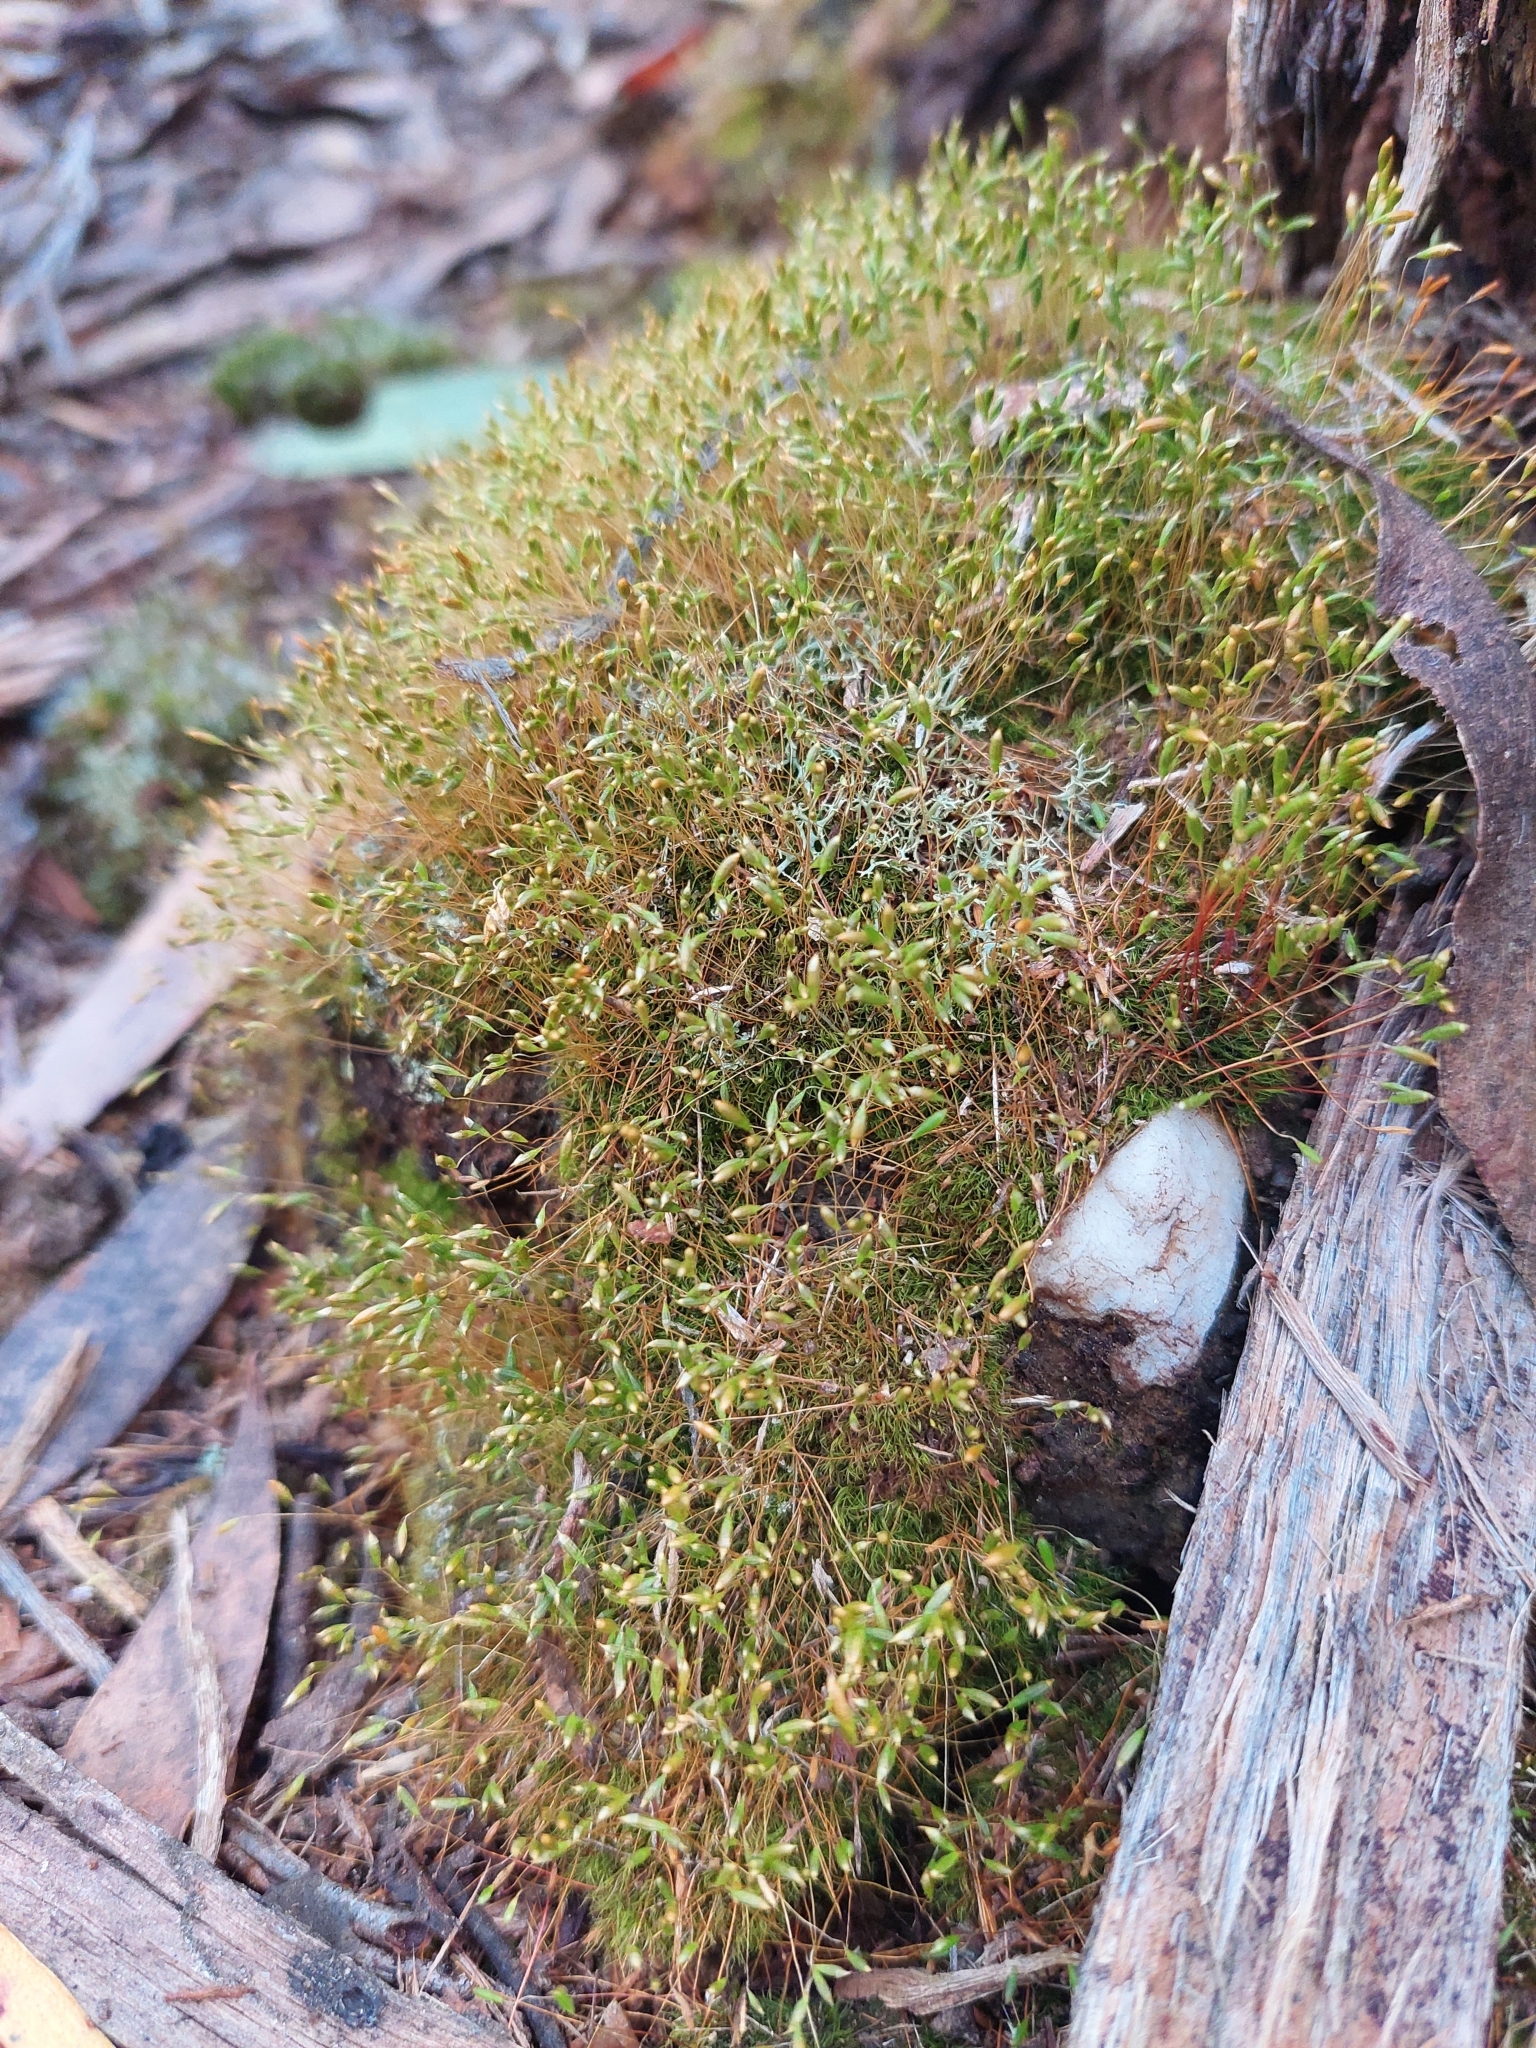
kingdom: Plantae
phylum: Bryophyta
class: Bryopsida
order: Orthodontiales
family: Orthodontiaceae
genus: Orthodontium
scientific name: Orthodontium lineare
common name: Cape thread-moss
